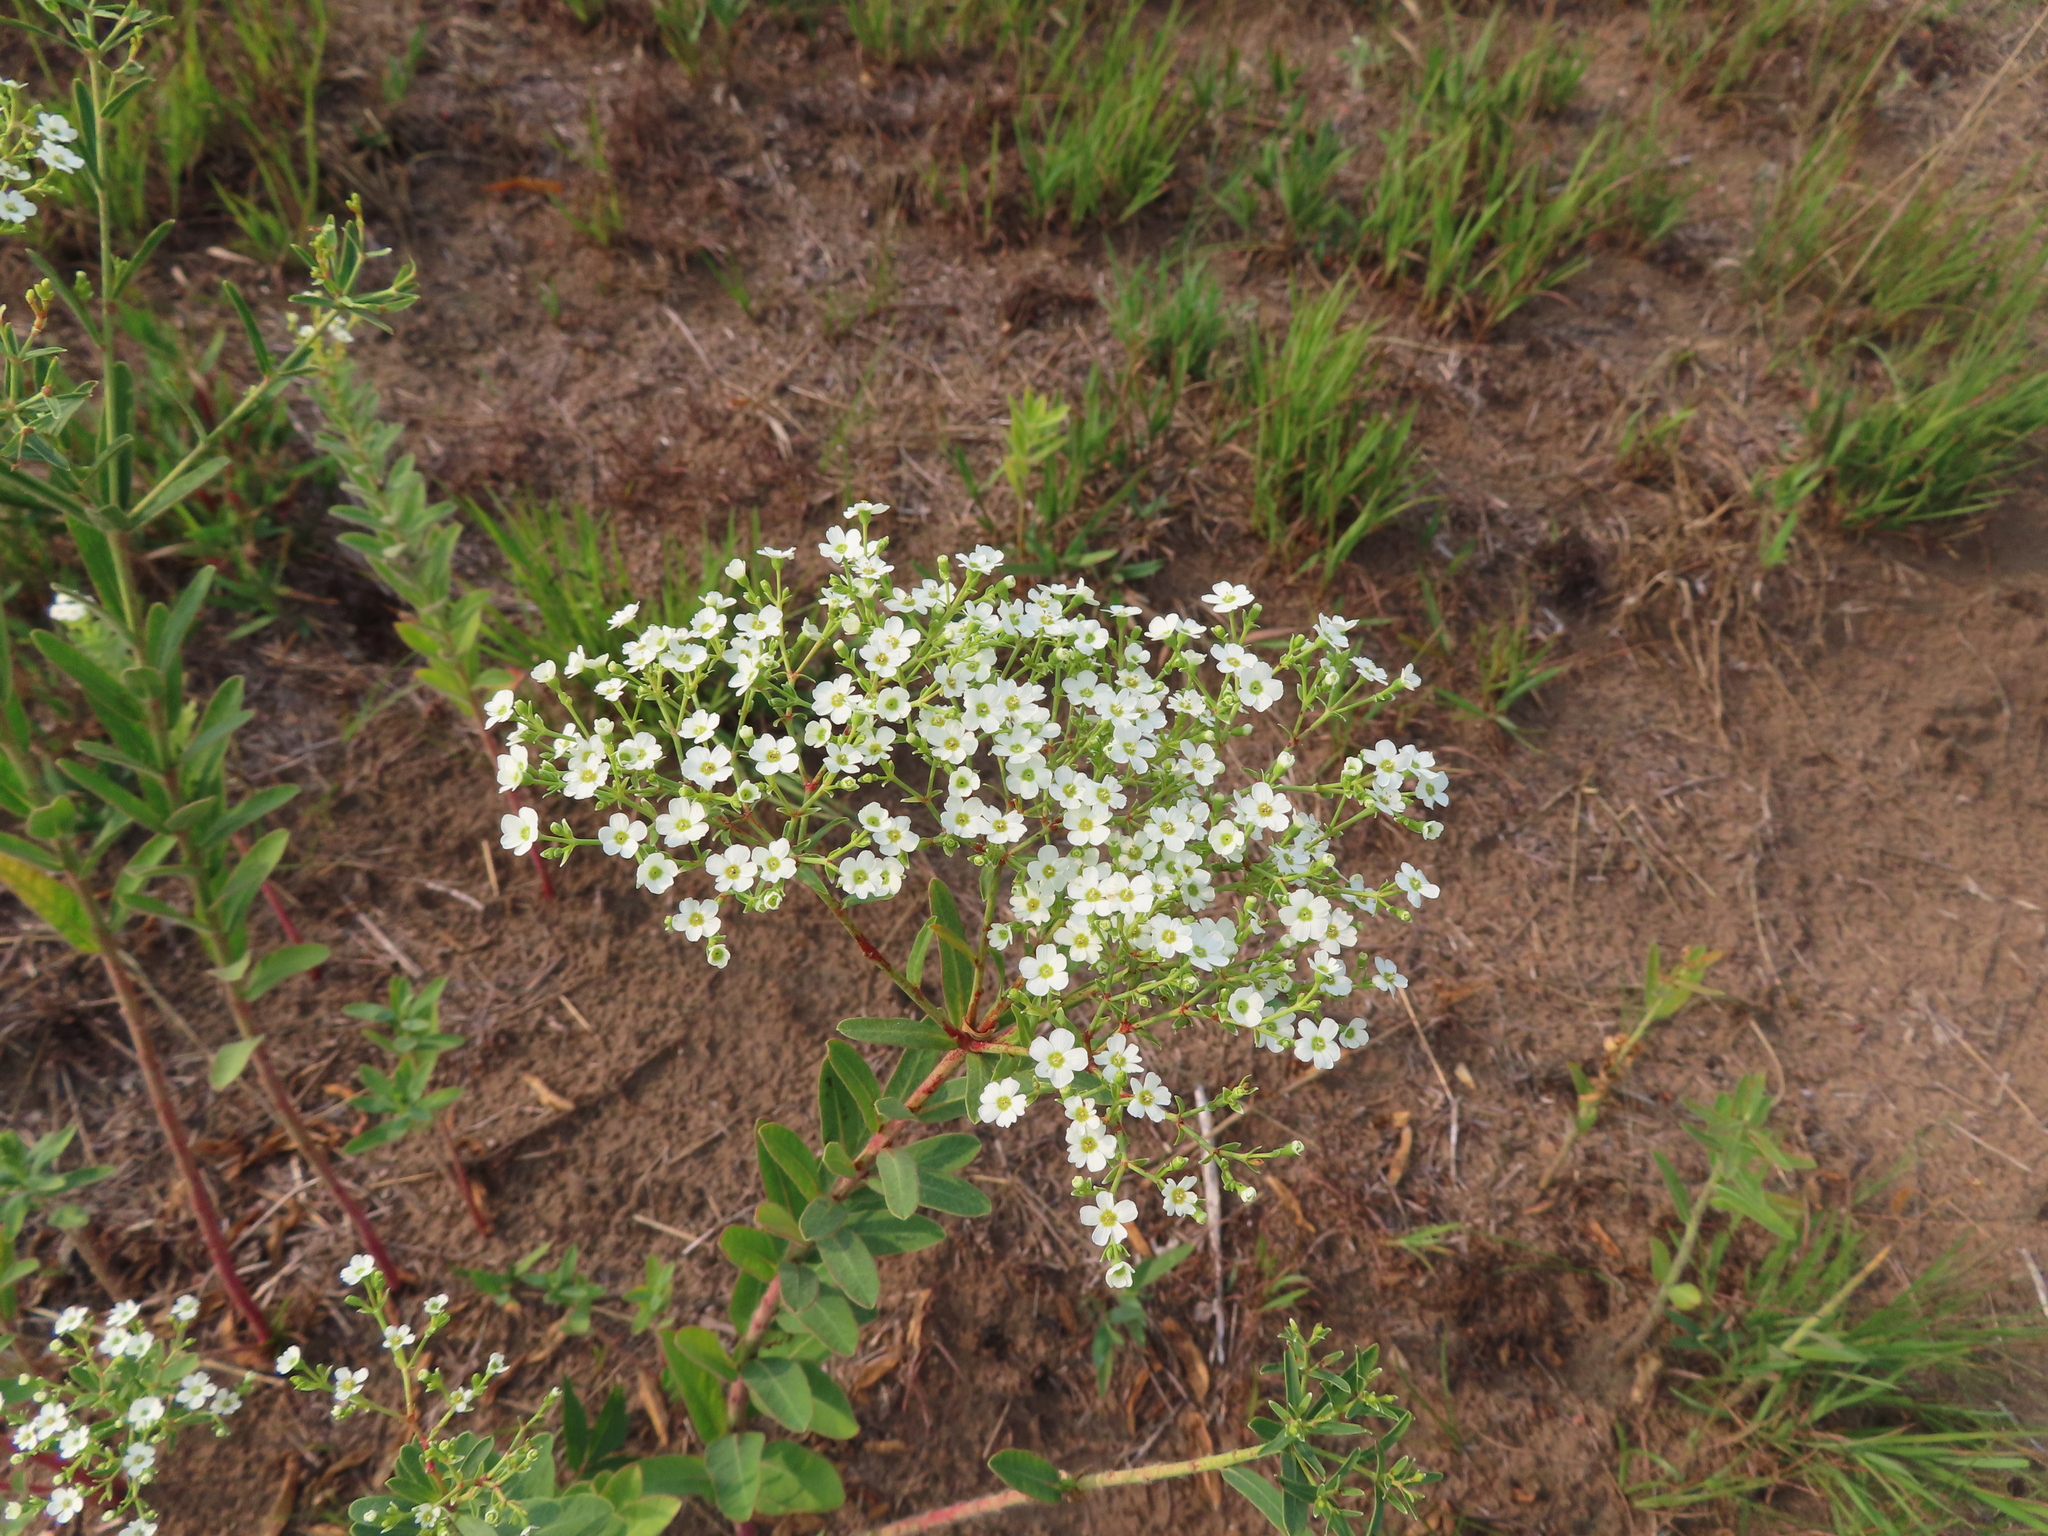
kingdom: Plantae
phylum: Tracheophyta
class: Magnoliopsida
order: Malpighiales
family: Euphorbiaceae
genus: Euphorbia
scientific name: Euphorbia corollata
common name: Flowering spurge
